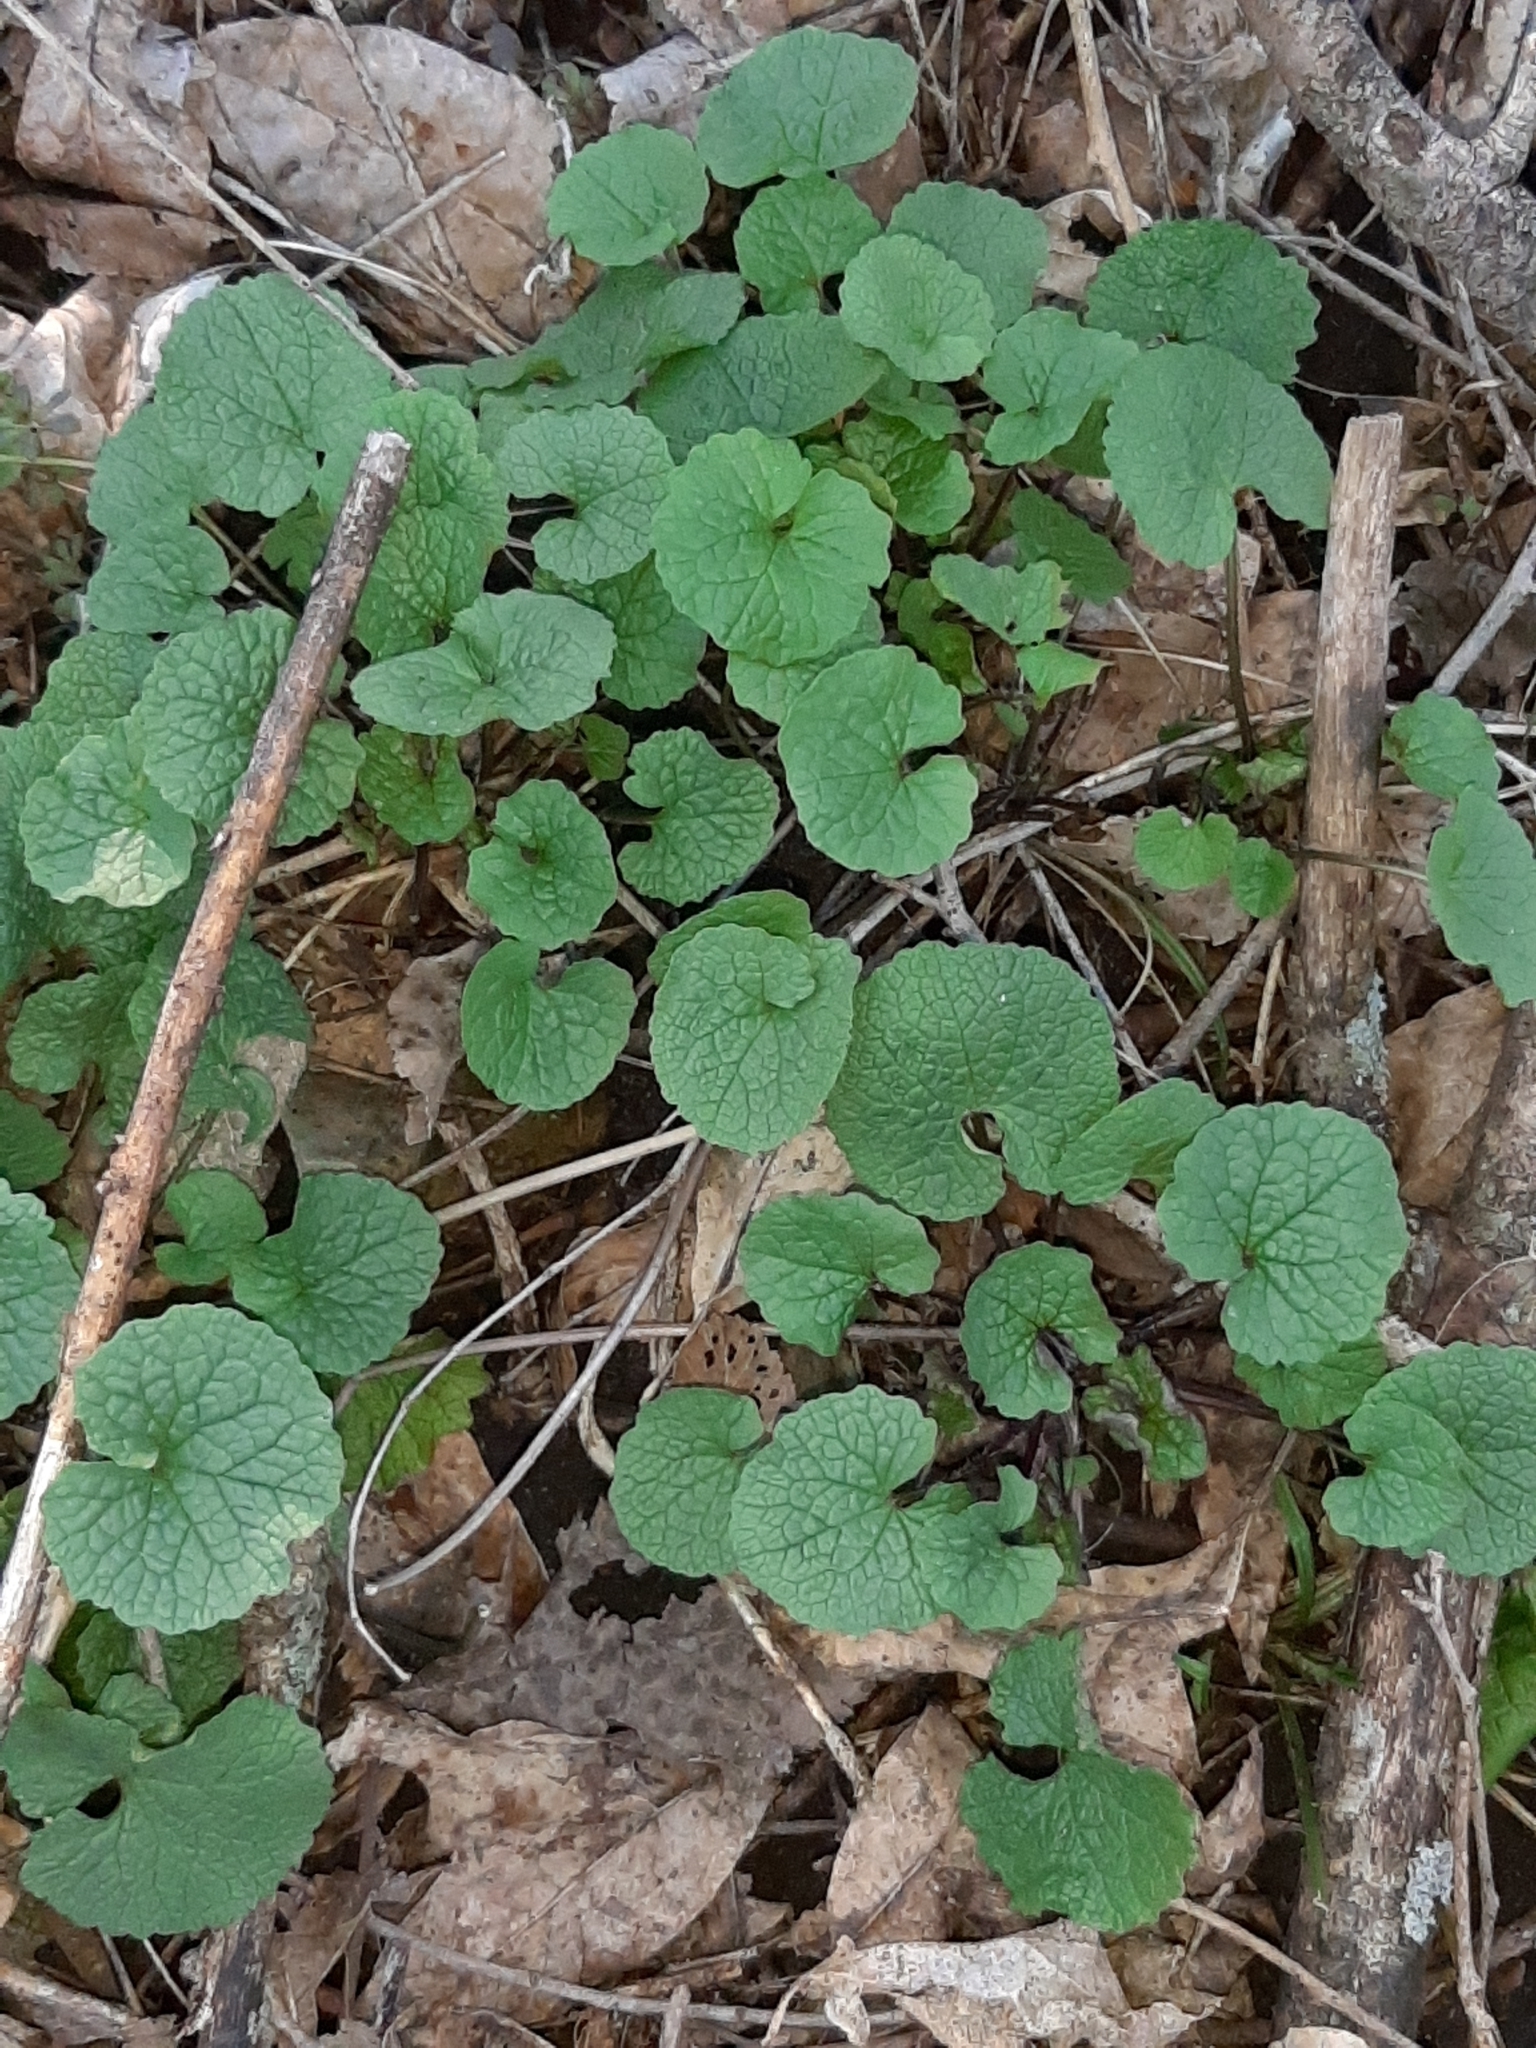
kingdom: Plantae
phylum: Tracheophyta
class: Magnoliopsida
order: Brassicales
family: Brassicaceae
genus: Alliaria
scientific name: Alliaria petiolata
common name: Garlic mustard
